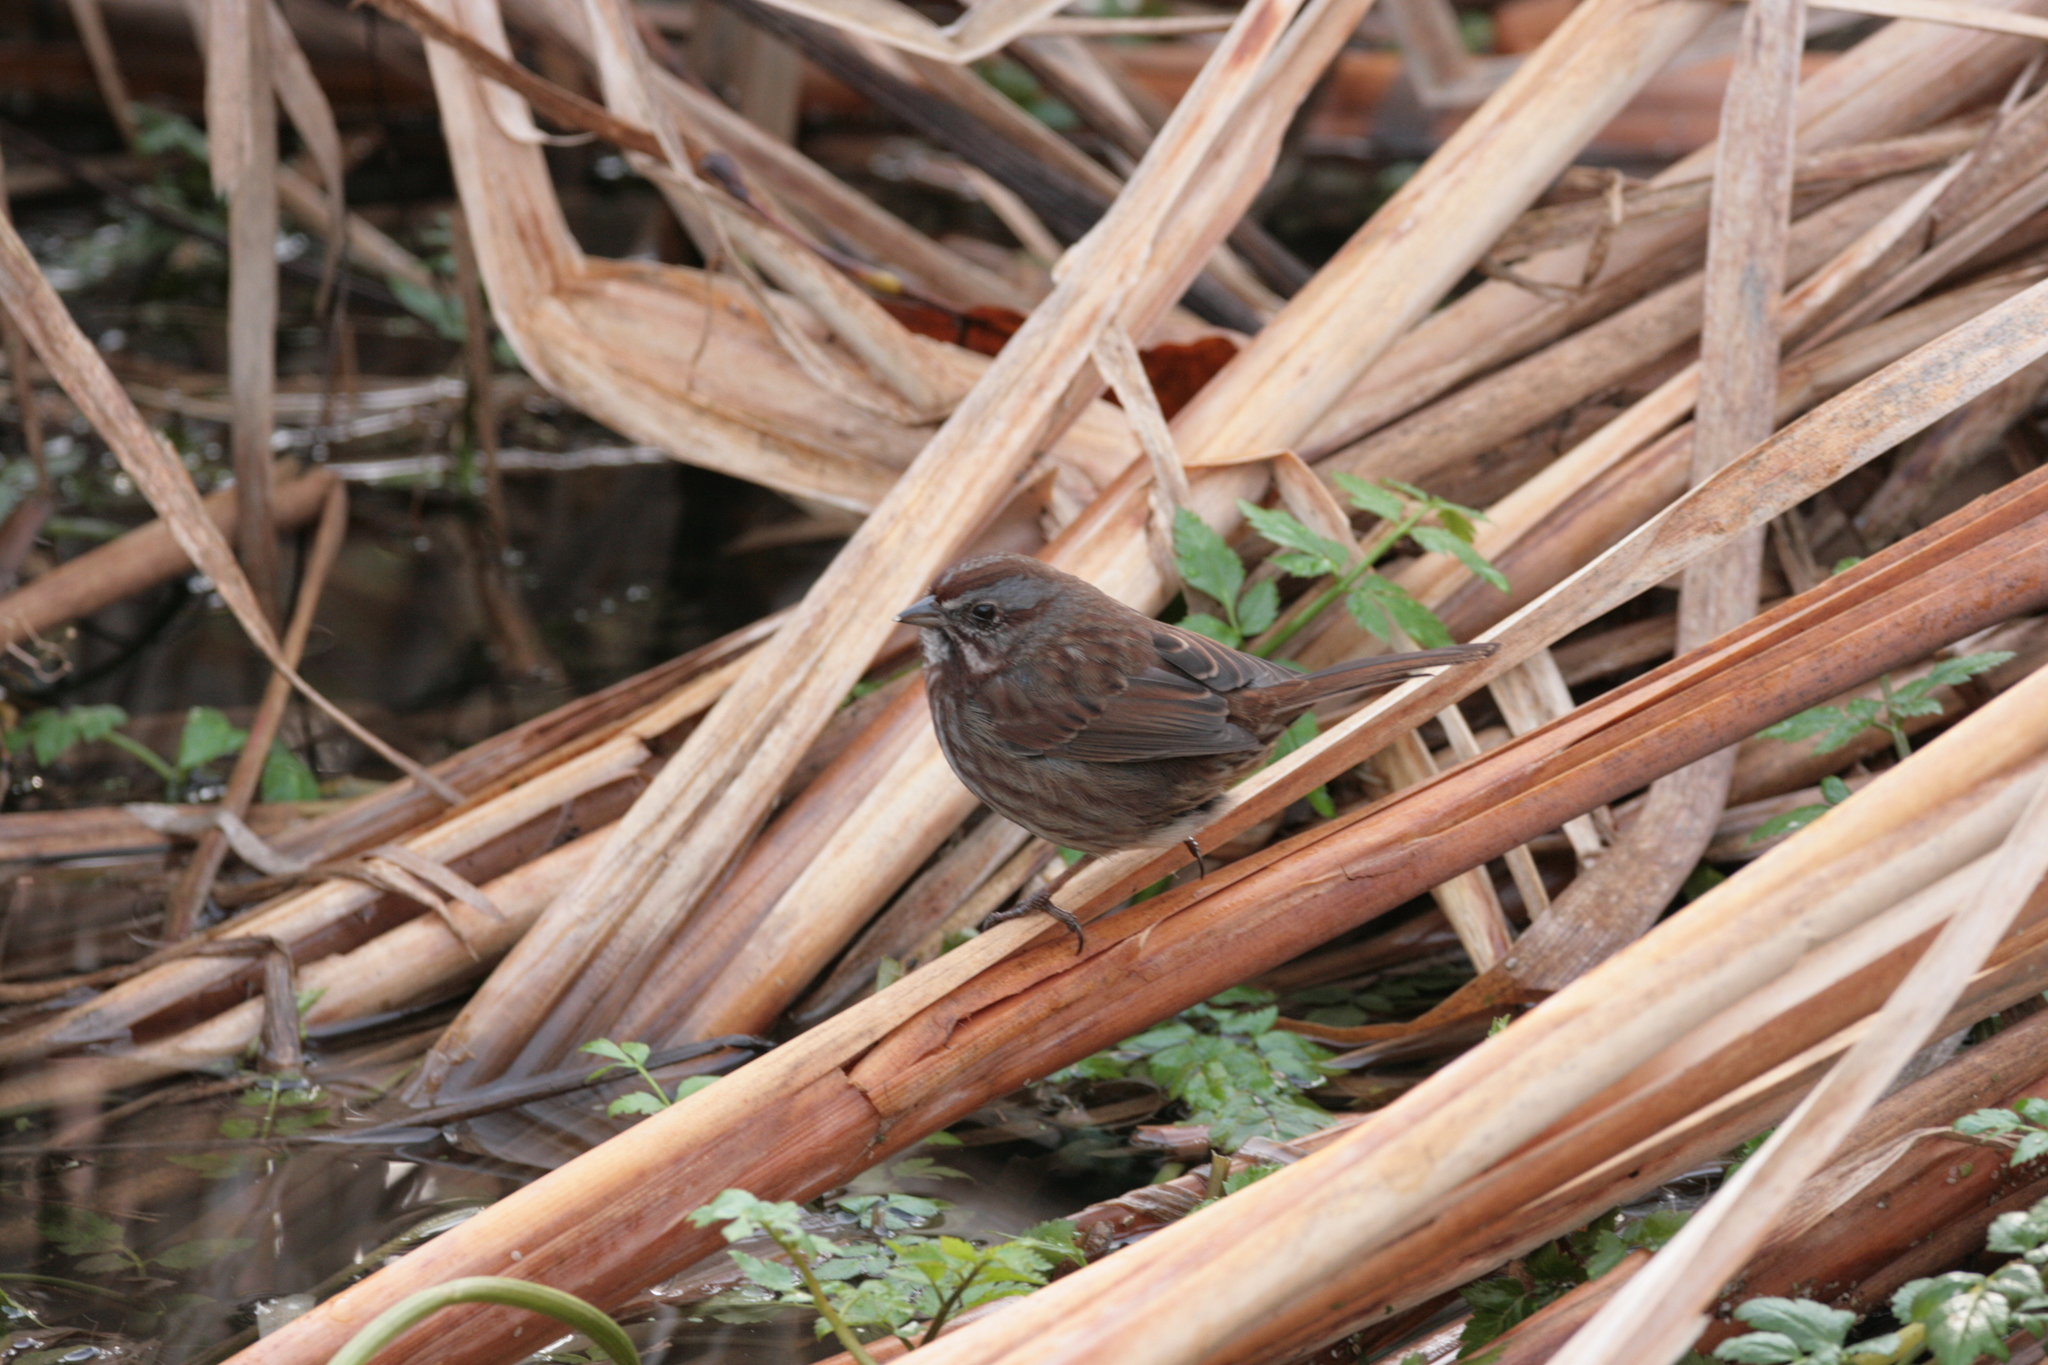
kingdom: Animalia
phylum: Chordata
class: Aves
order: Passeriformes
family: Passerellidae
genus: Melospiza
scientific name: Melospiza melodia
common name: Song sparrow
